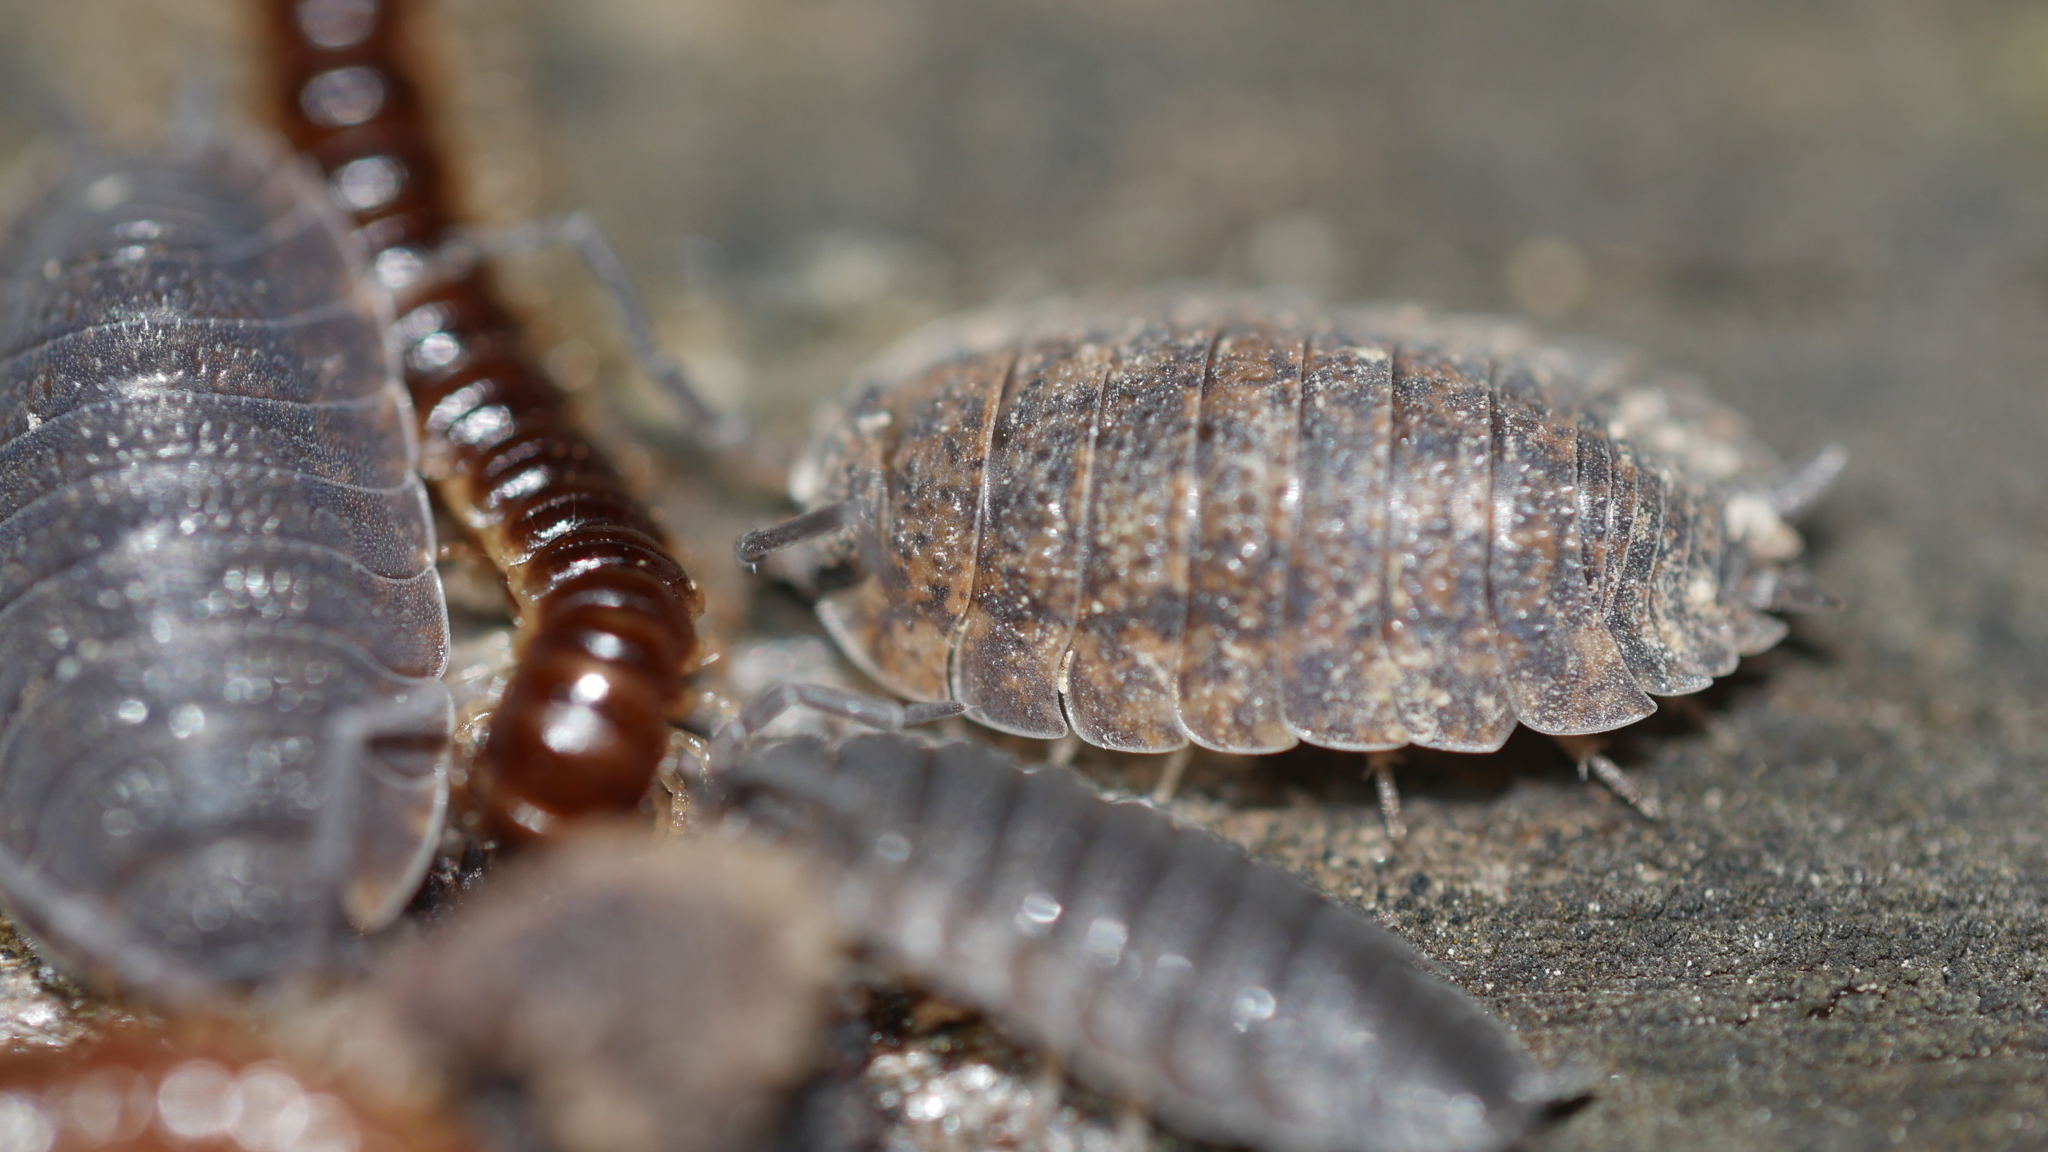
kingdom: Animalia
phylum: Arthropoda
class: Malacostraca
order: Isopoda
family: Porcellionidae
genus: Porcellio
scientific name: Porcellio scaber
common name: Common rough woodlouse
